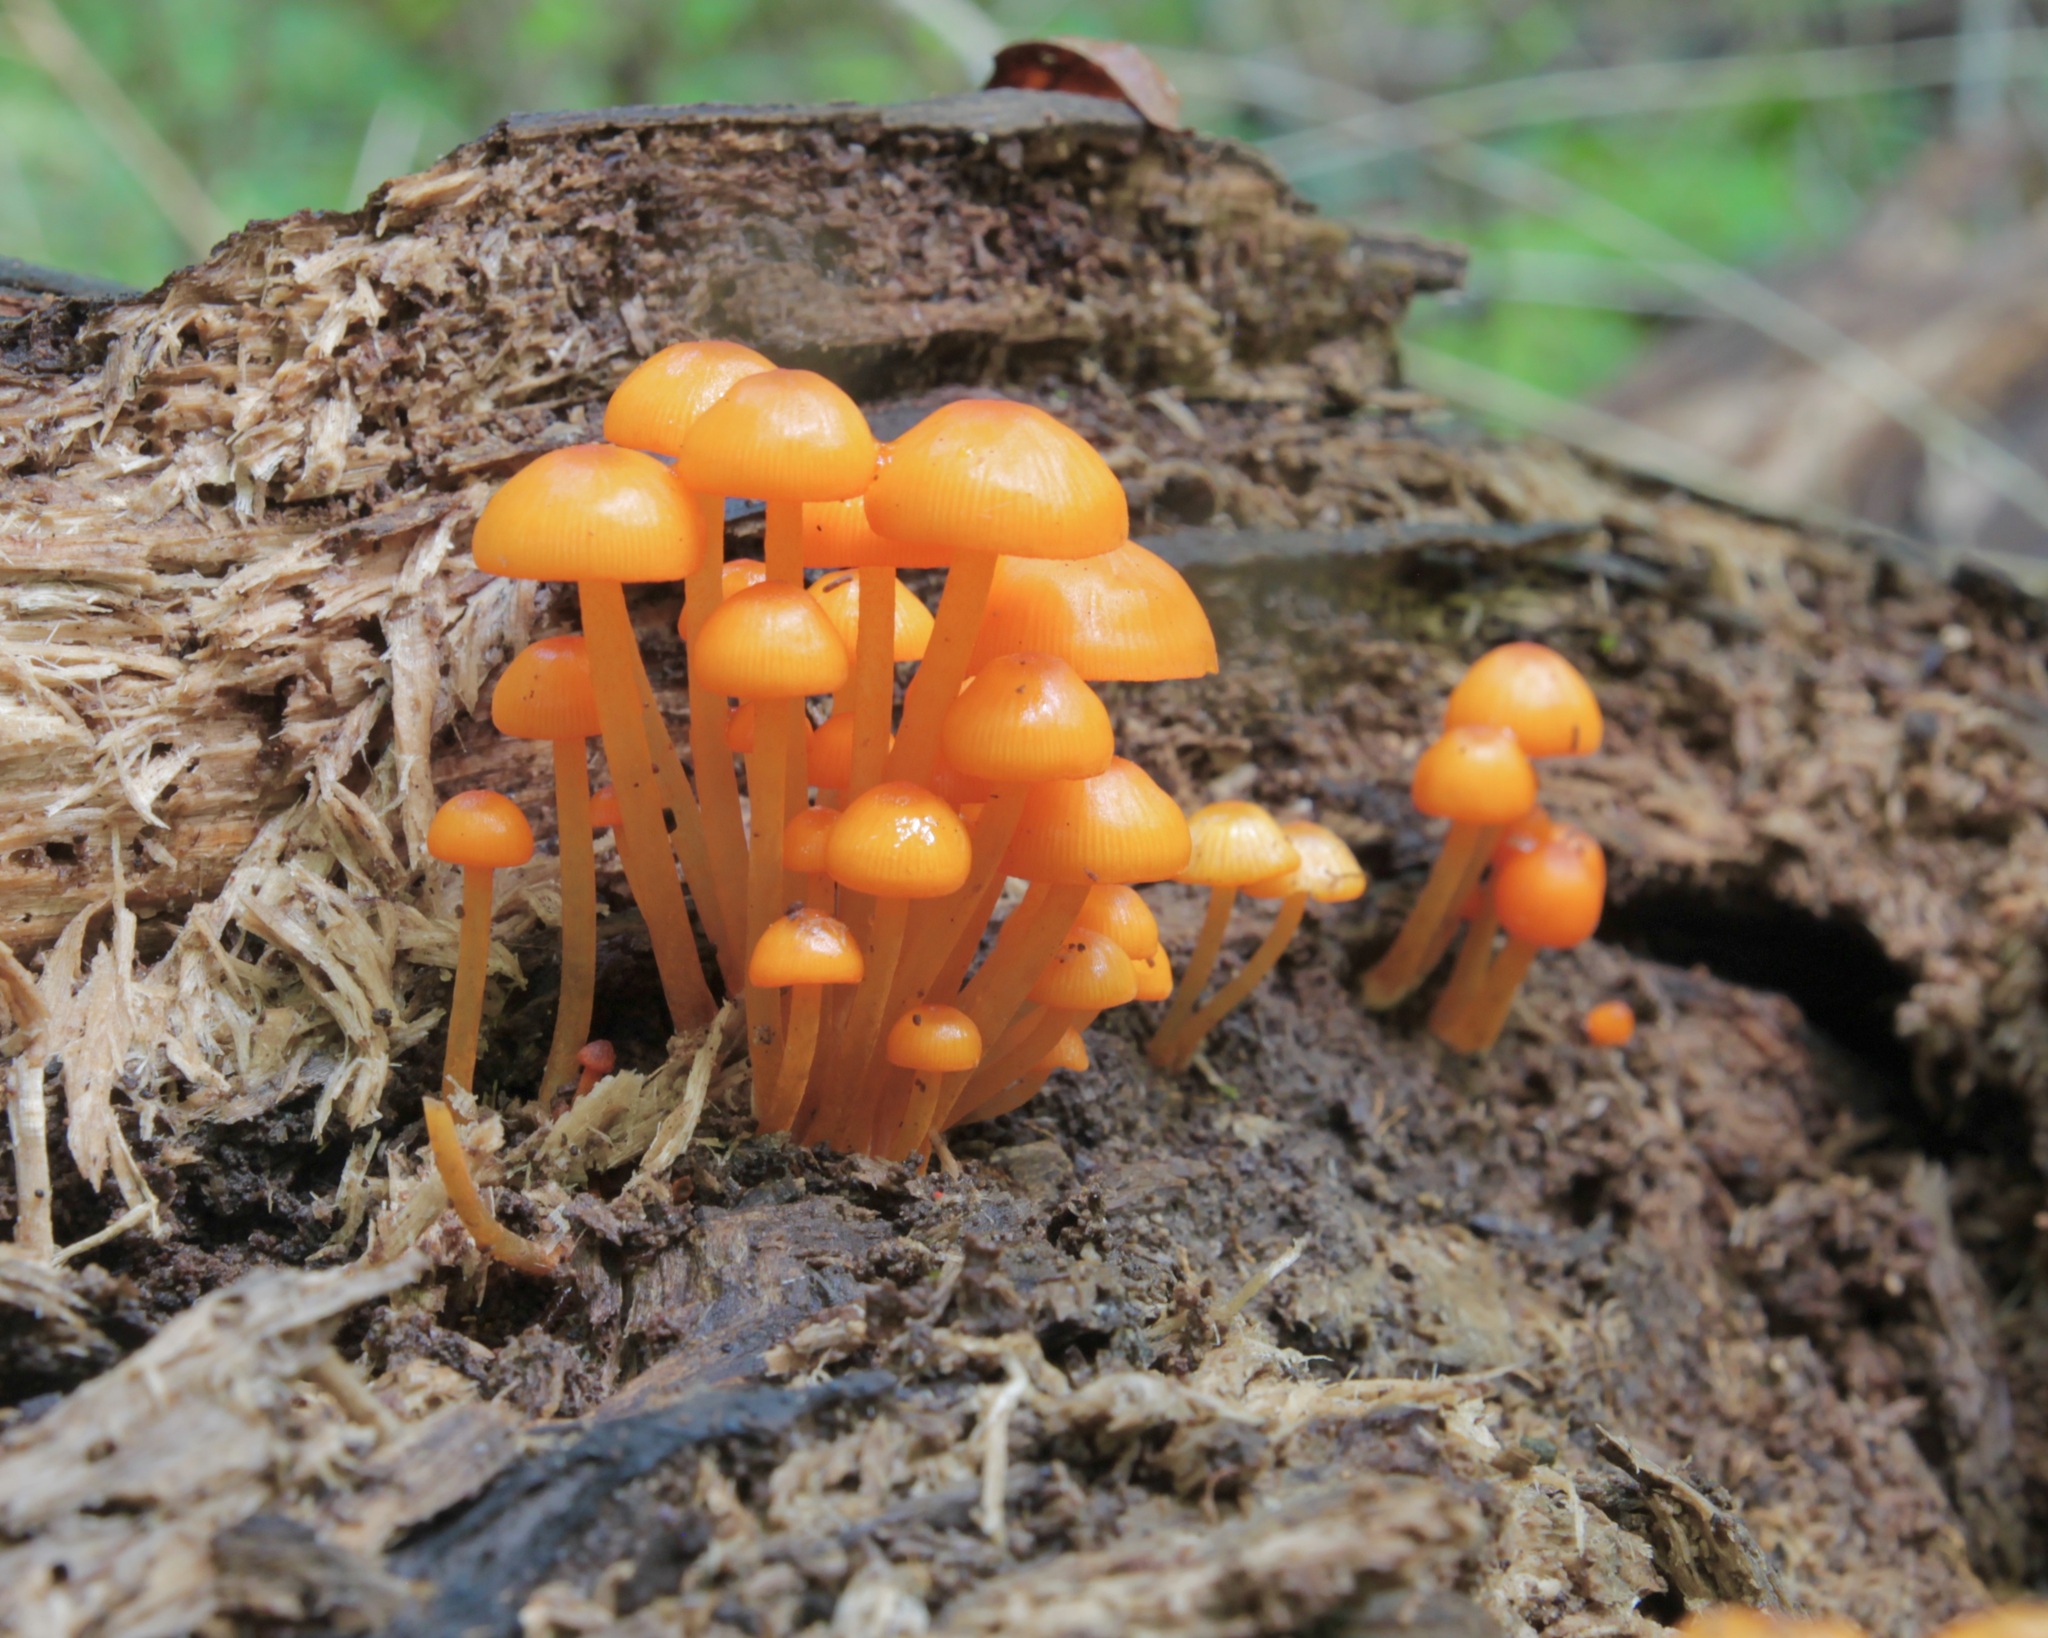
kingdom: Fungi
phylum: Basidiomycota
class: Agaricomycetes
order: Agaricales
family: Mycenaceae
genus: Mycena
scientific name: Mycena leaiana
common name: Orange mycena
